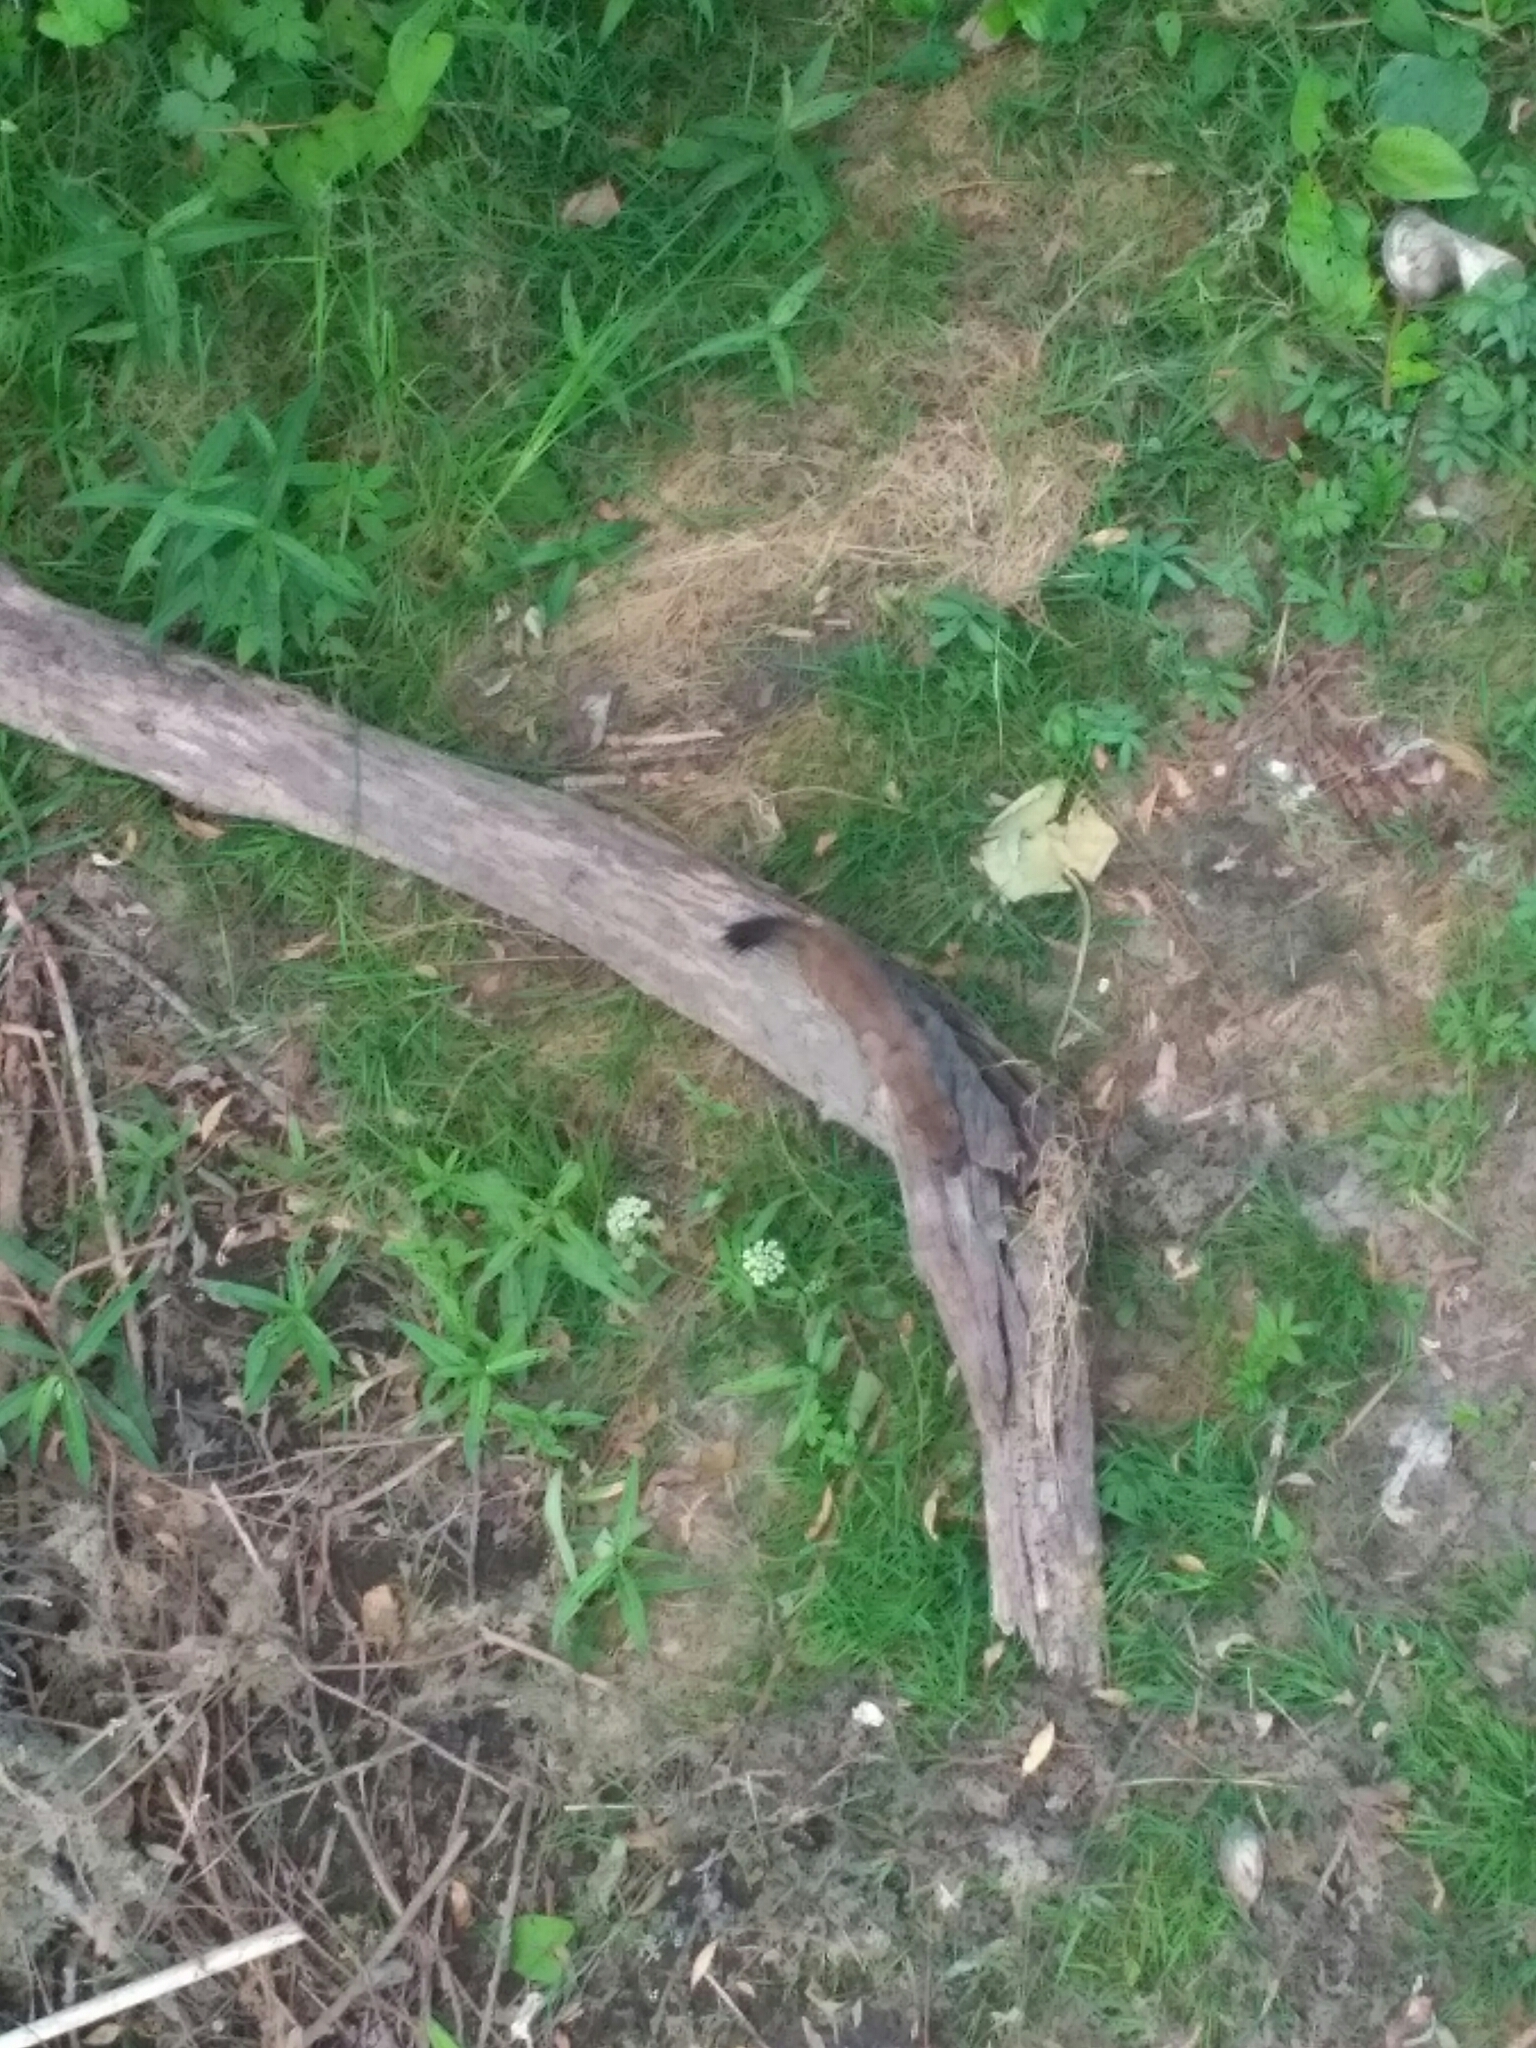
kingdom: Animalia
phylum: Chordata
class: Mammalia
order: Carnivora
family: Mustelidae
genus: Mustela
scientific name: Mustela erminea
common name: Stoat
